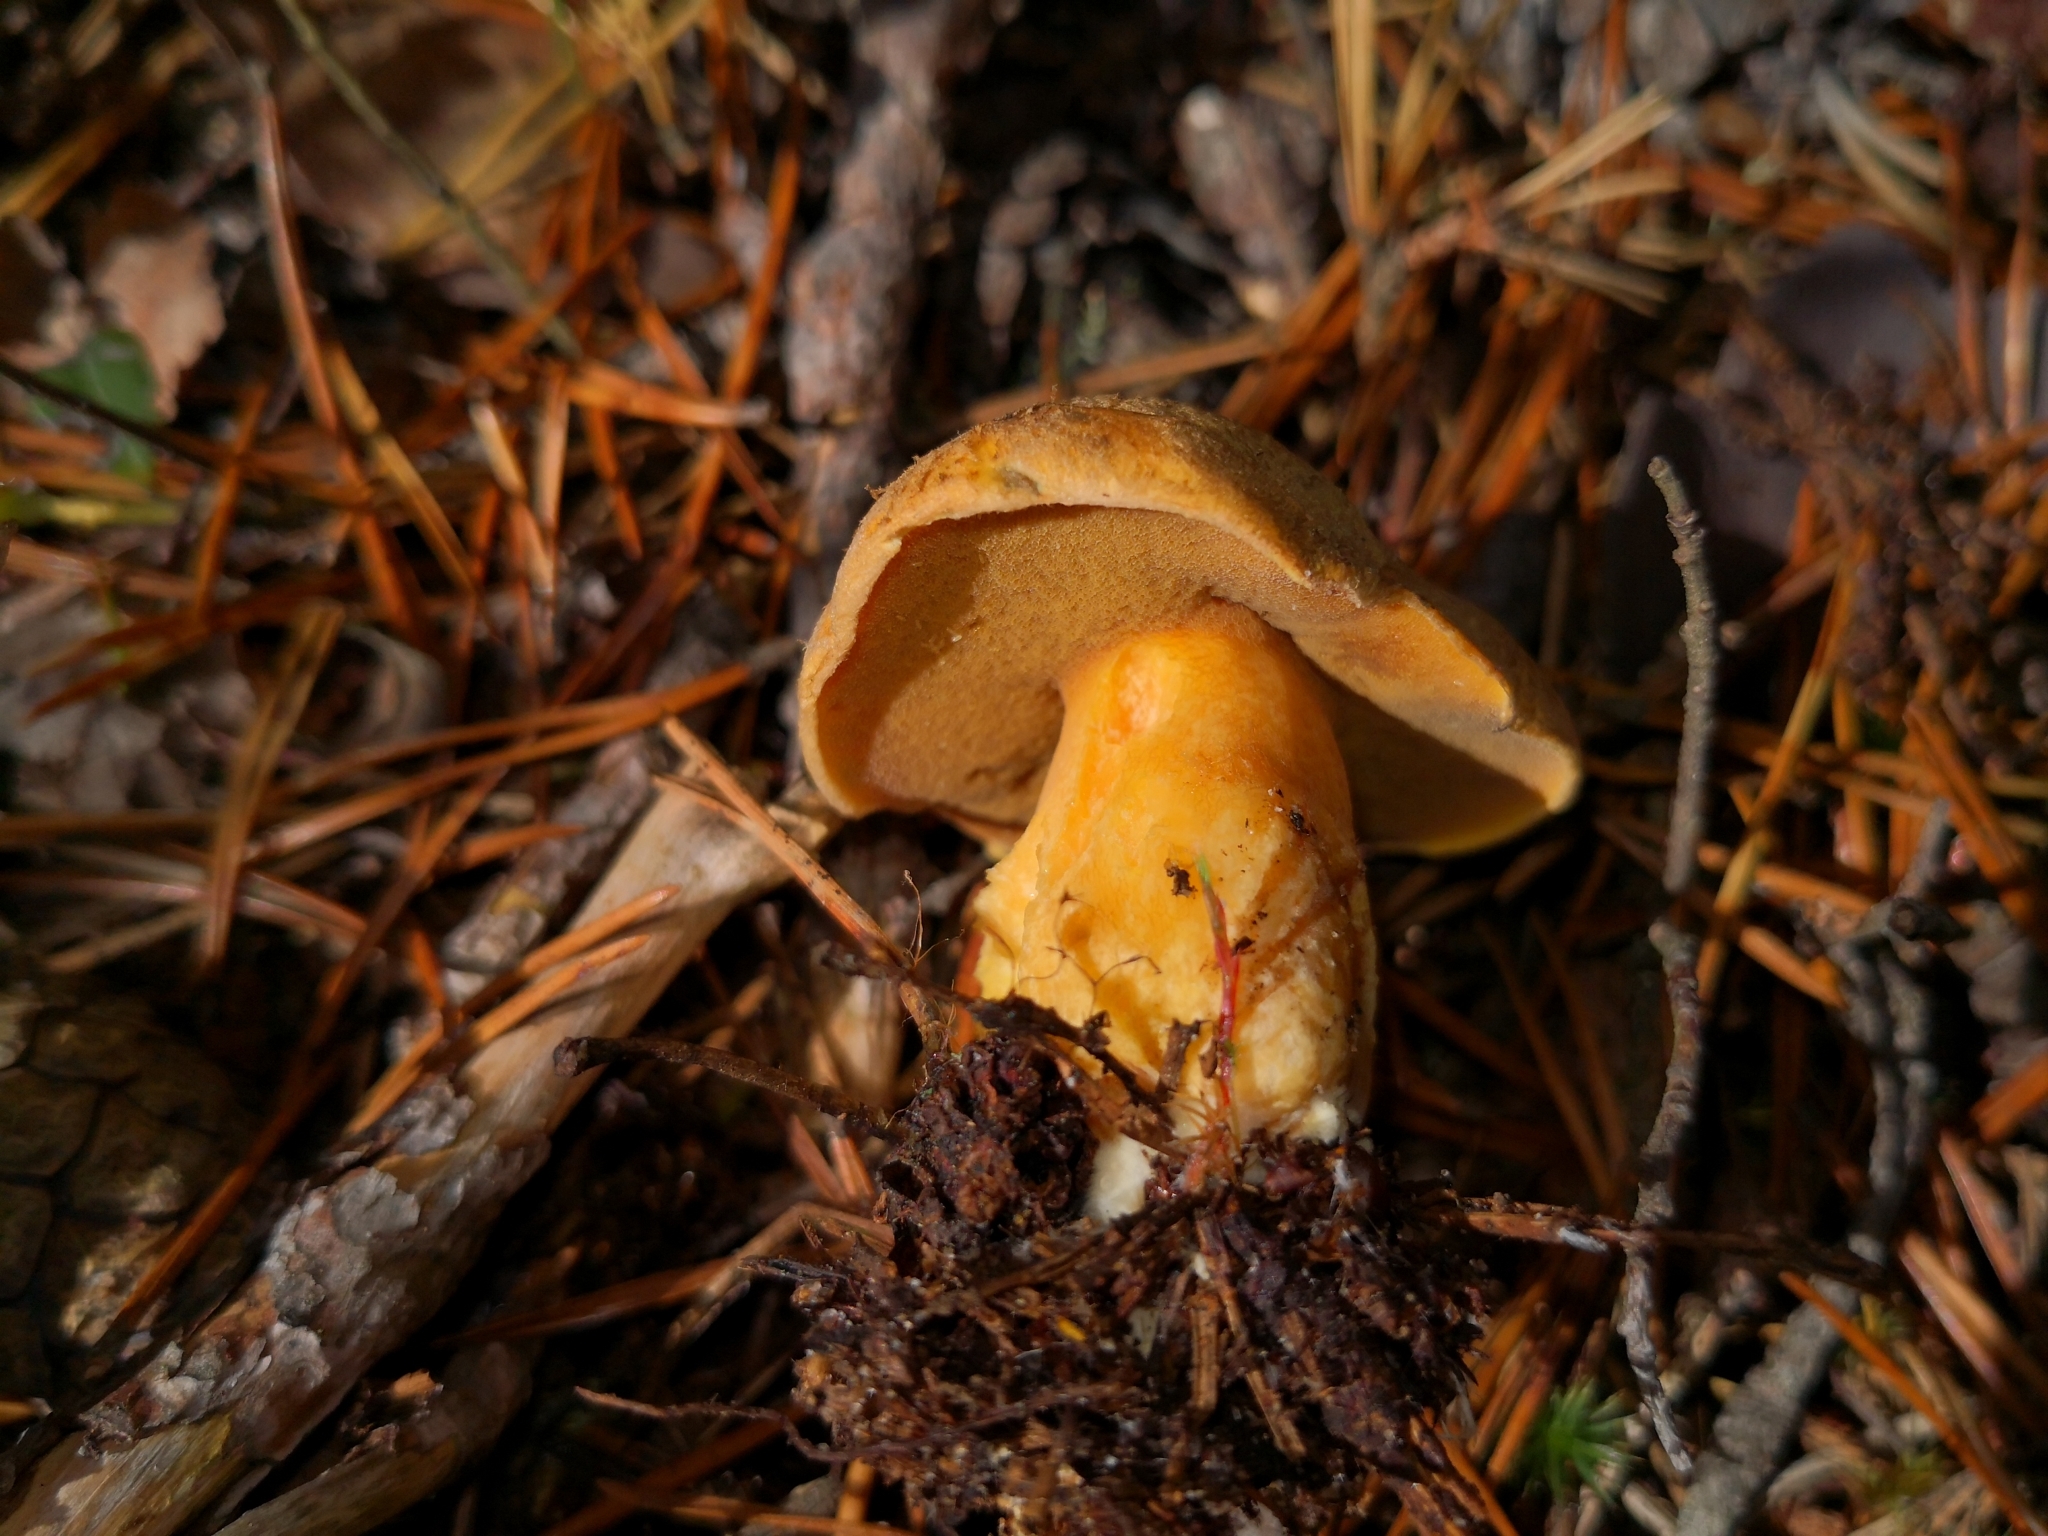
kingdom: Fungi
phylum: Basidiomycota
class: Agaricomycetes
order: Boletales
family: Suillaceae
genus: Suillus
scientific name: Suillus variegatus
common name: Velvet bolete
